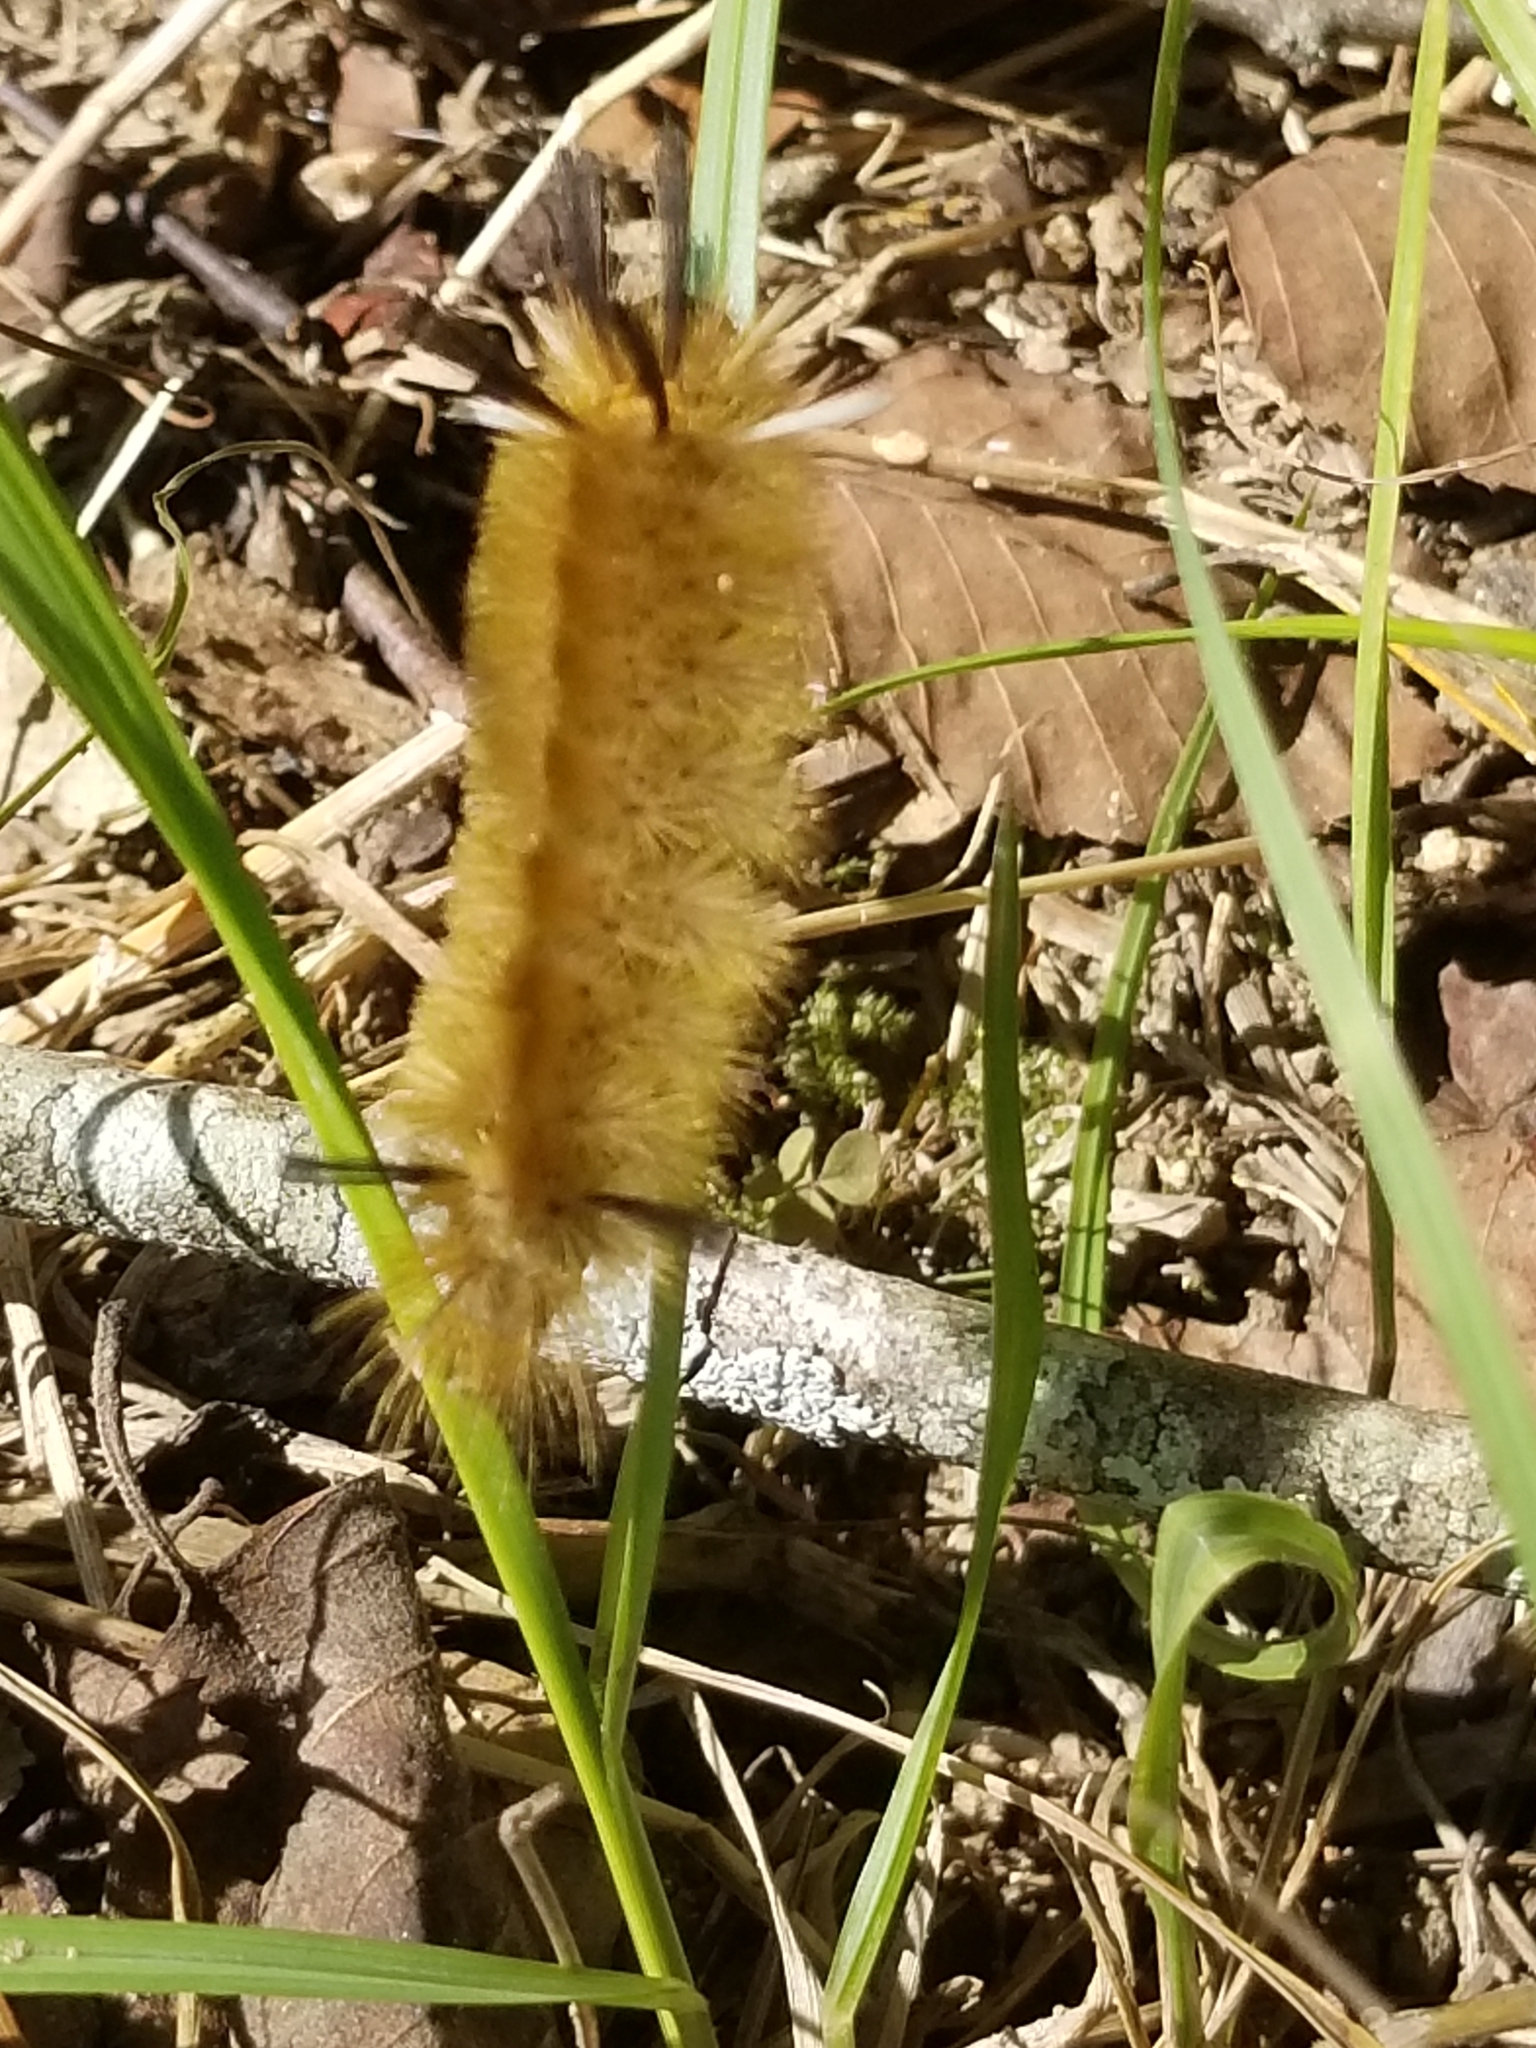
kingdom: Animalia
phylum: Arthropoda
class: Insecta
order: Lepidoptera
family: Erebidae
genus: Halysidota
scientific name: Halysidota tessellaris
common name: Banded tussock moth
